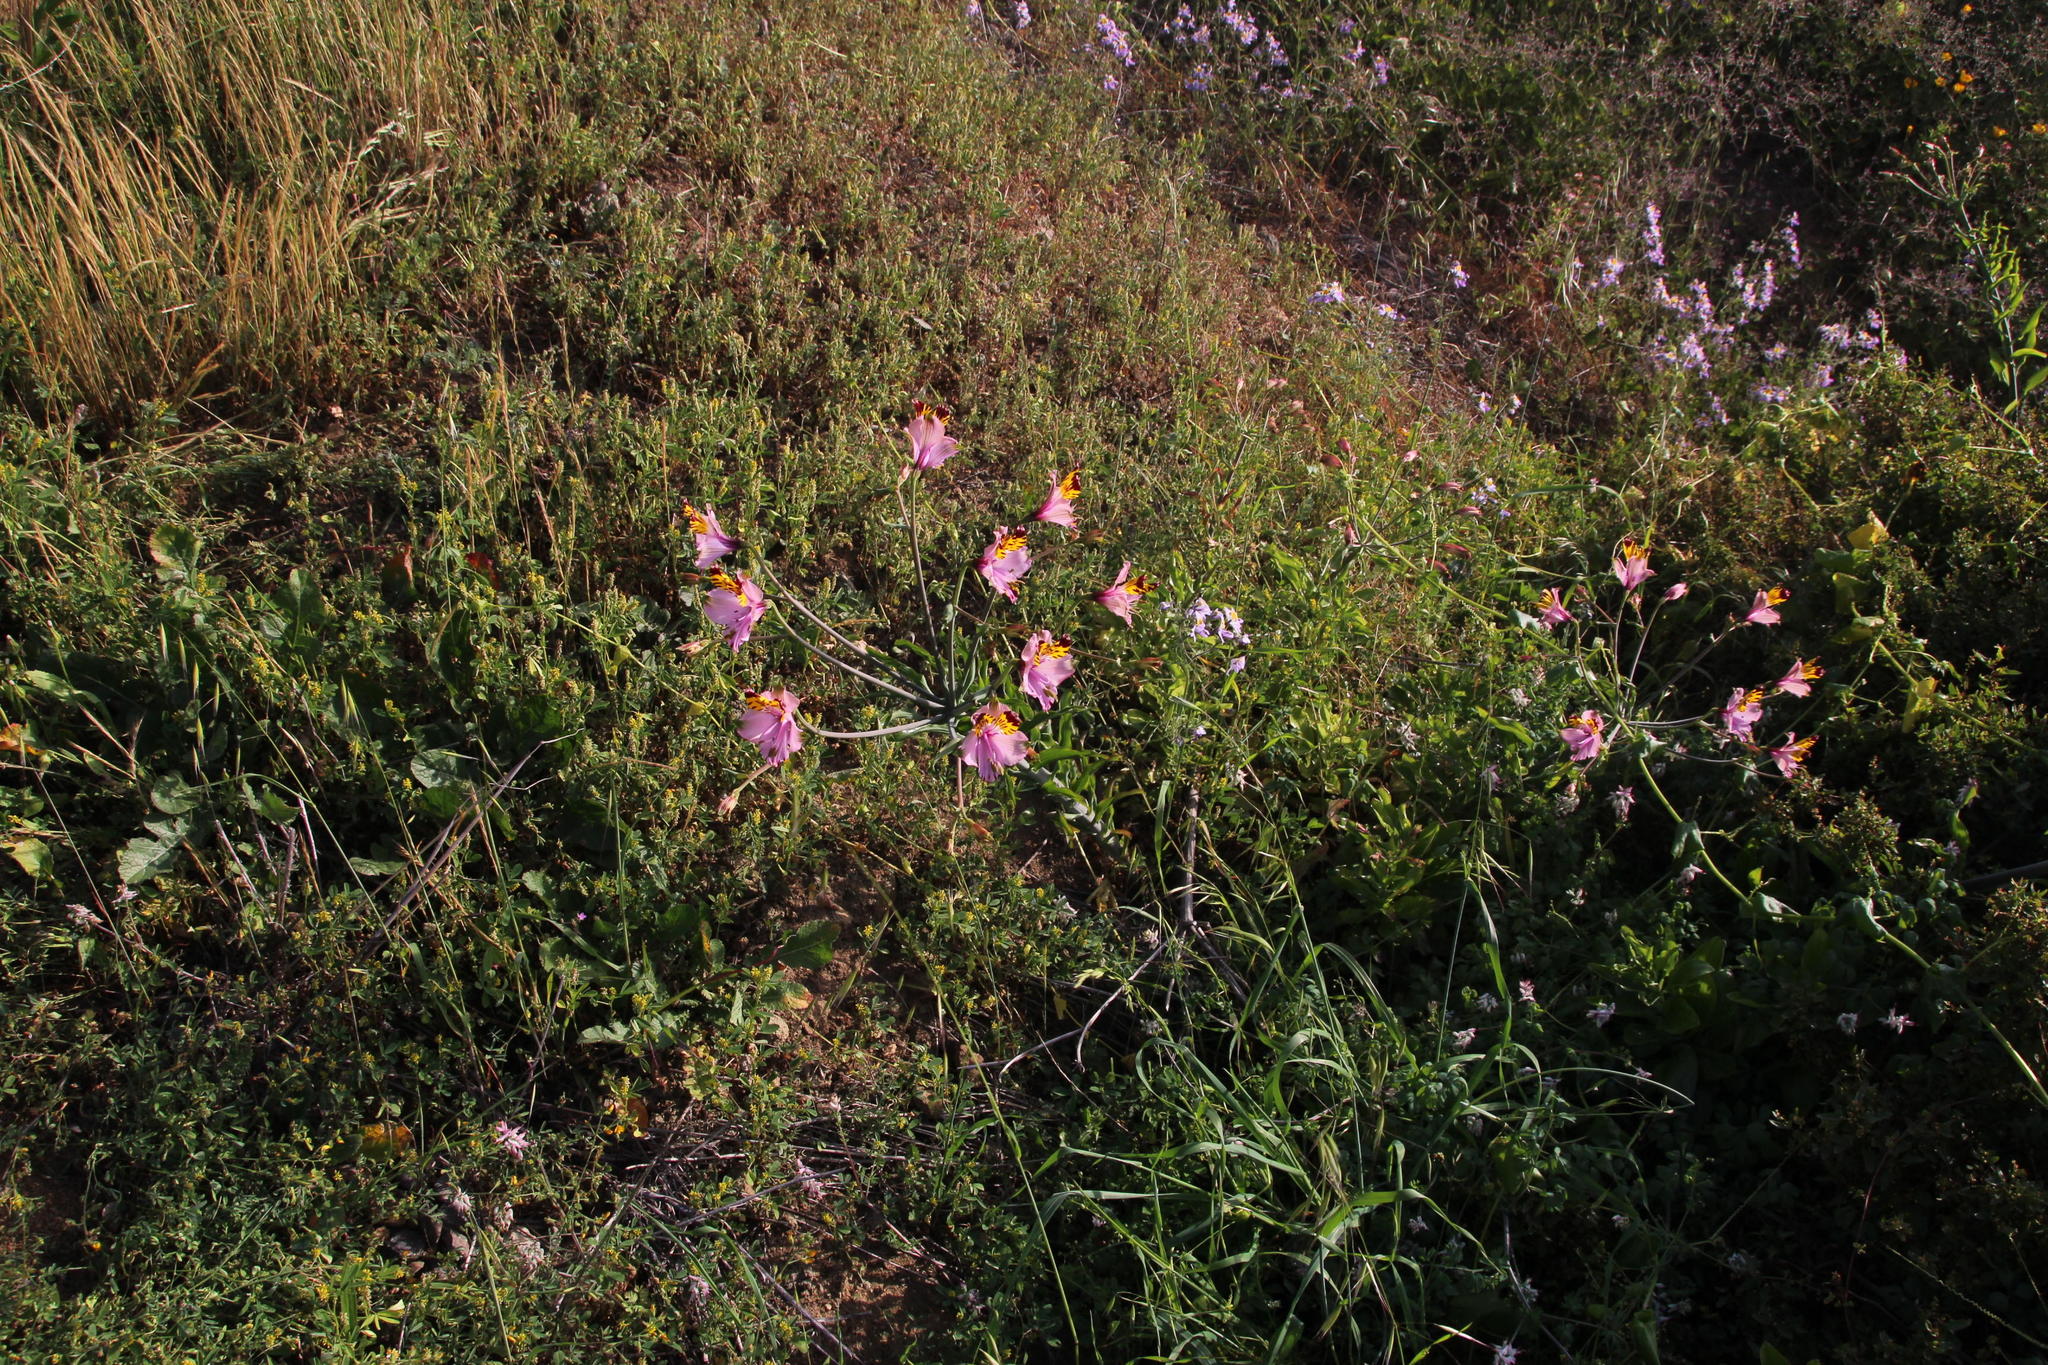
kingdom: Plantae
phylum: Tracheophyta
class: Liliopsida
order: Liliales
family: Alstroemeriaceae
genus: Alstroemeria
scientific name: Alstroemeria pulchra
